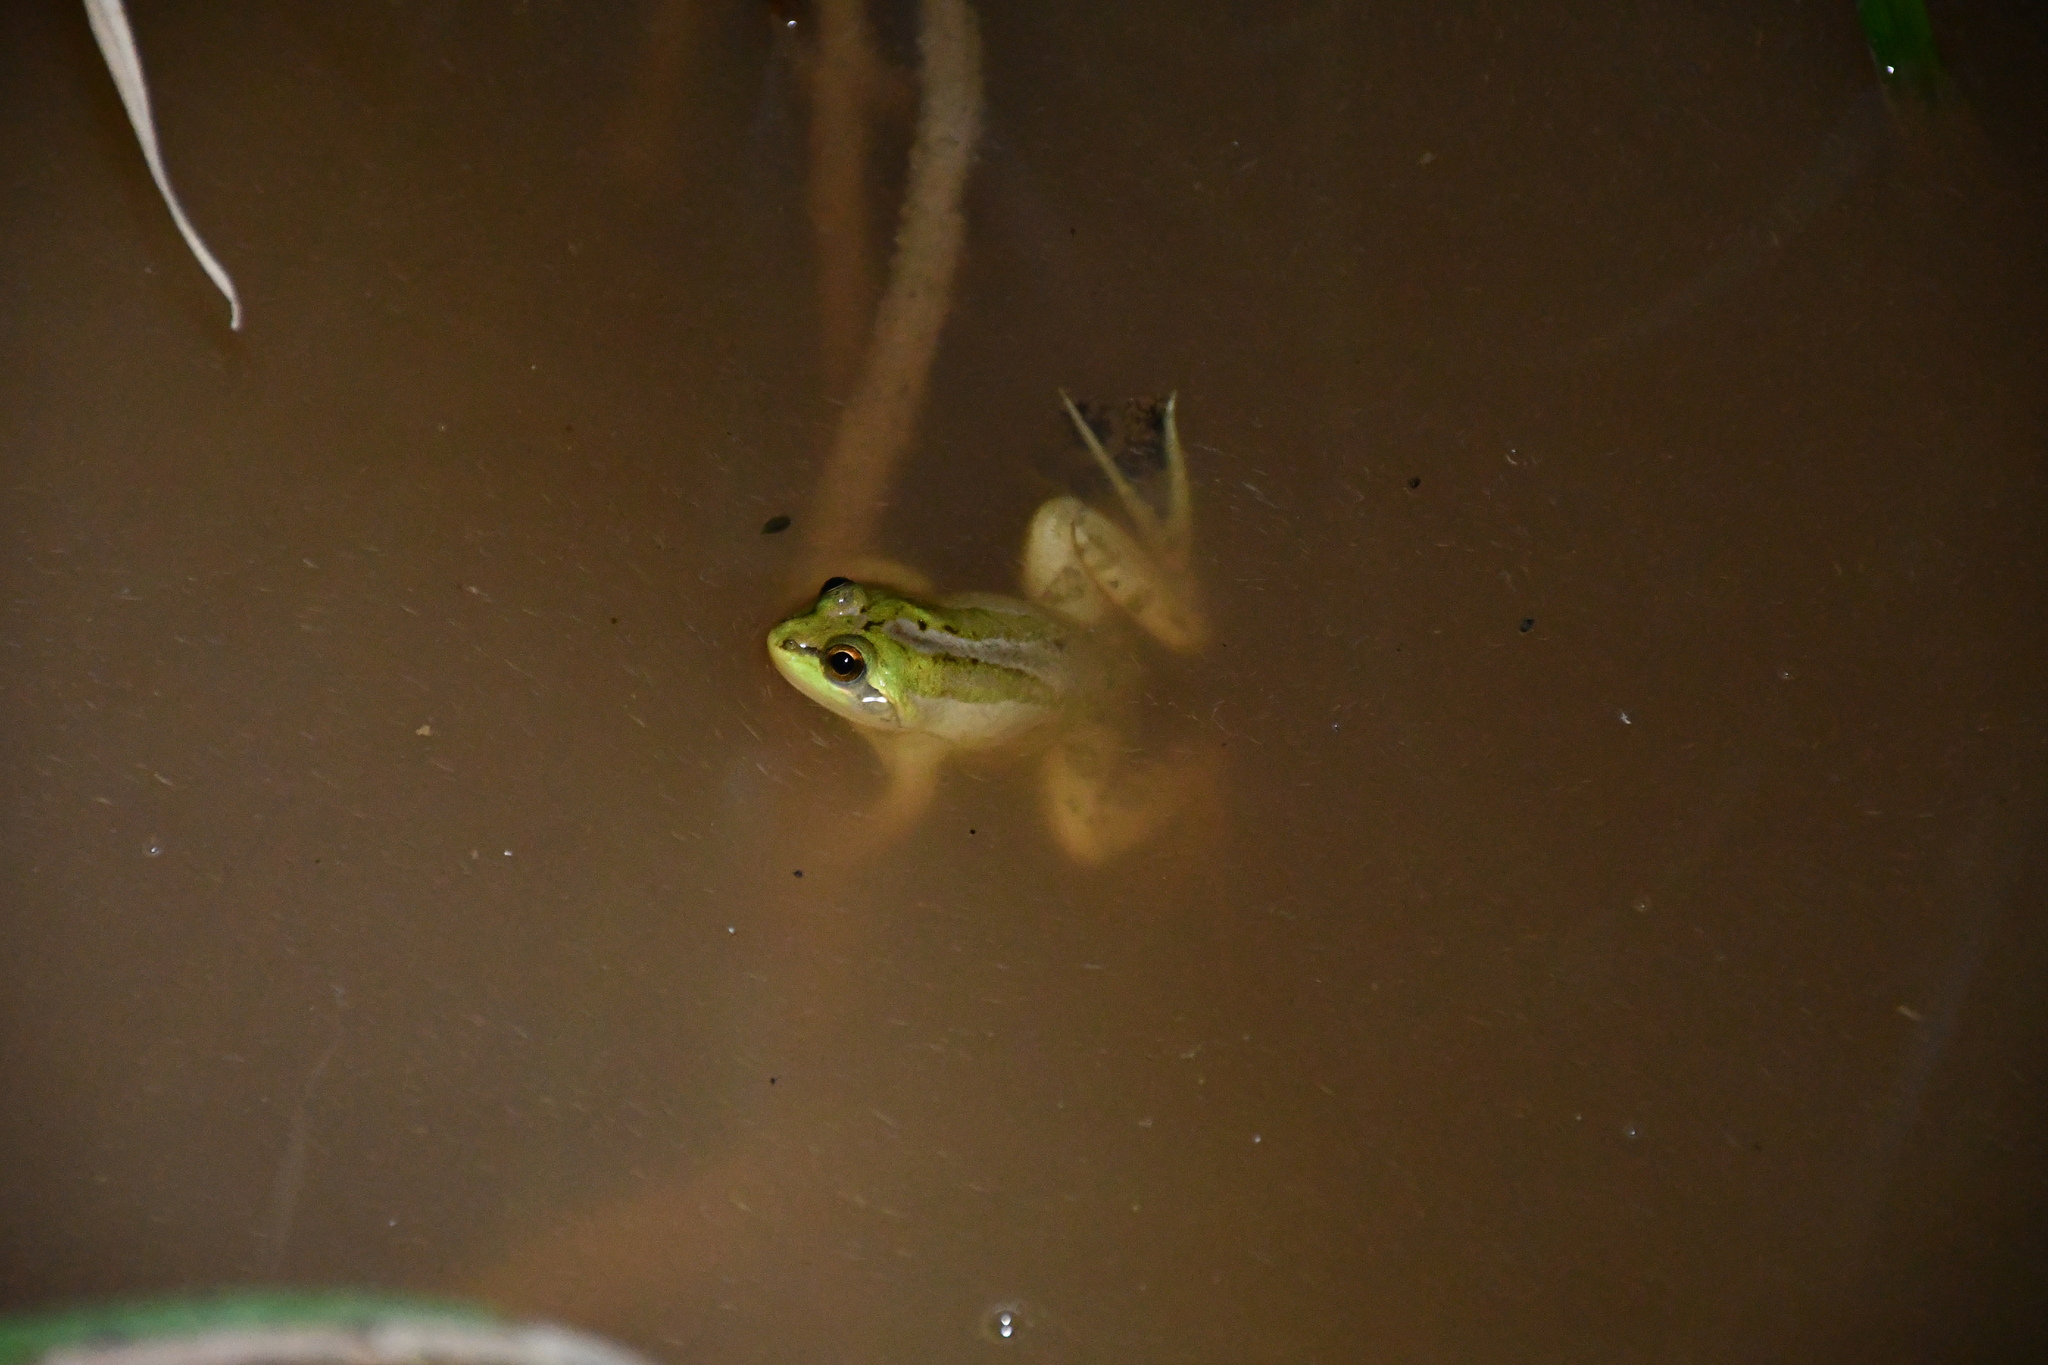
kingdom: Animalia
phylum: Chordata
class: Amphibia
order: Anura
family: Hylidae
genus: Pseudis
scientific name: Pseudis paradoxa
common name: Swimming frog
